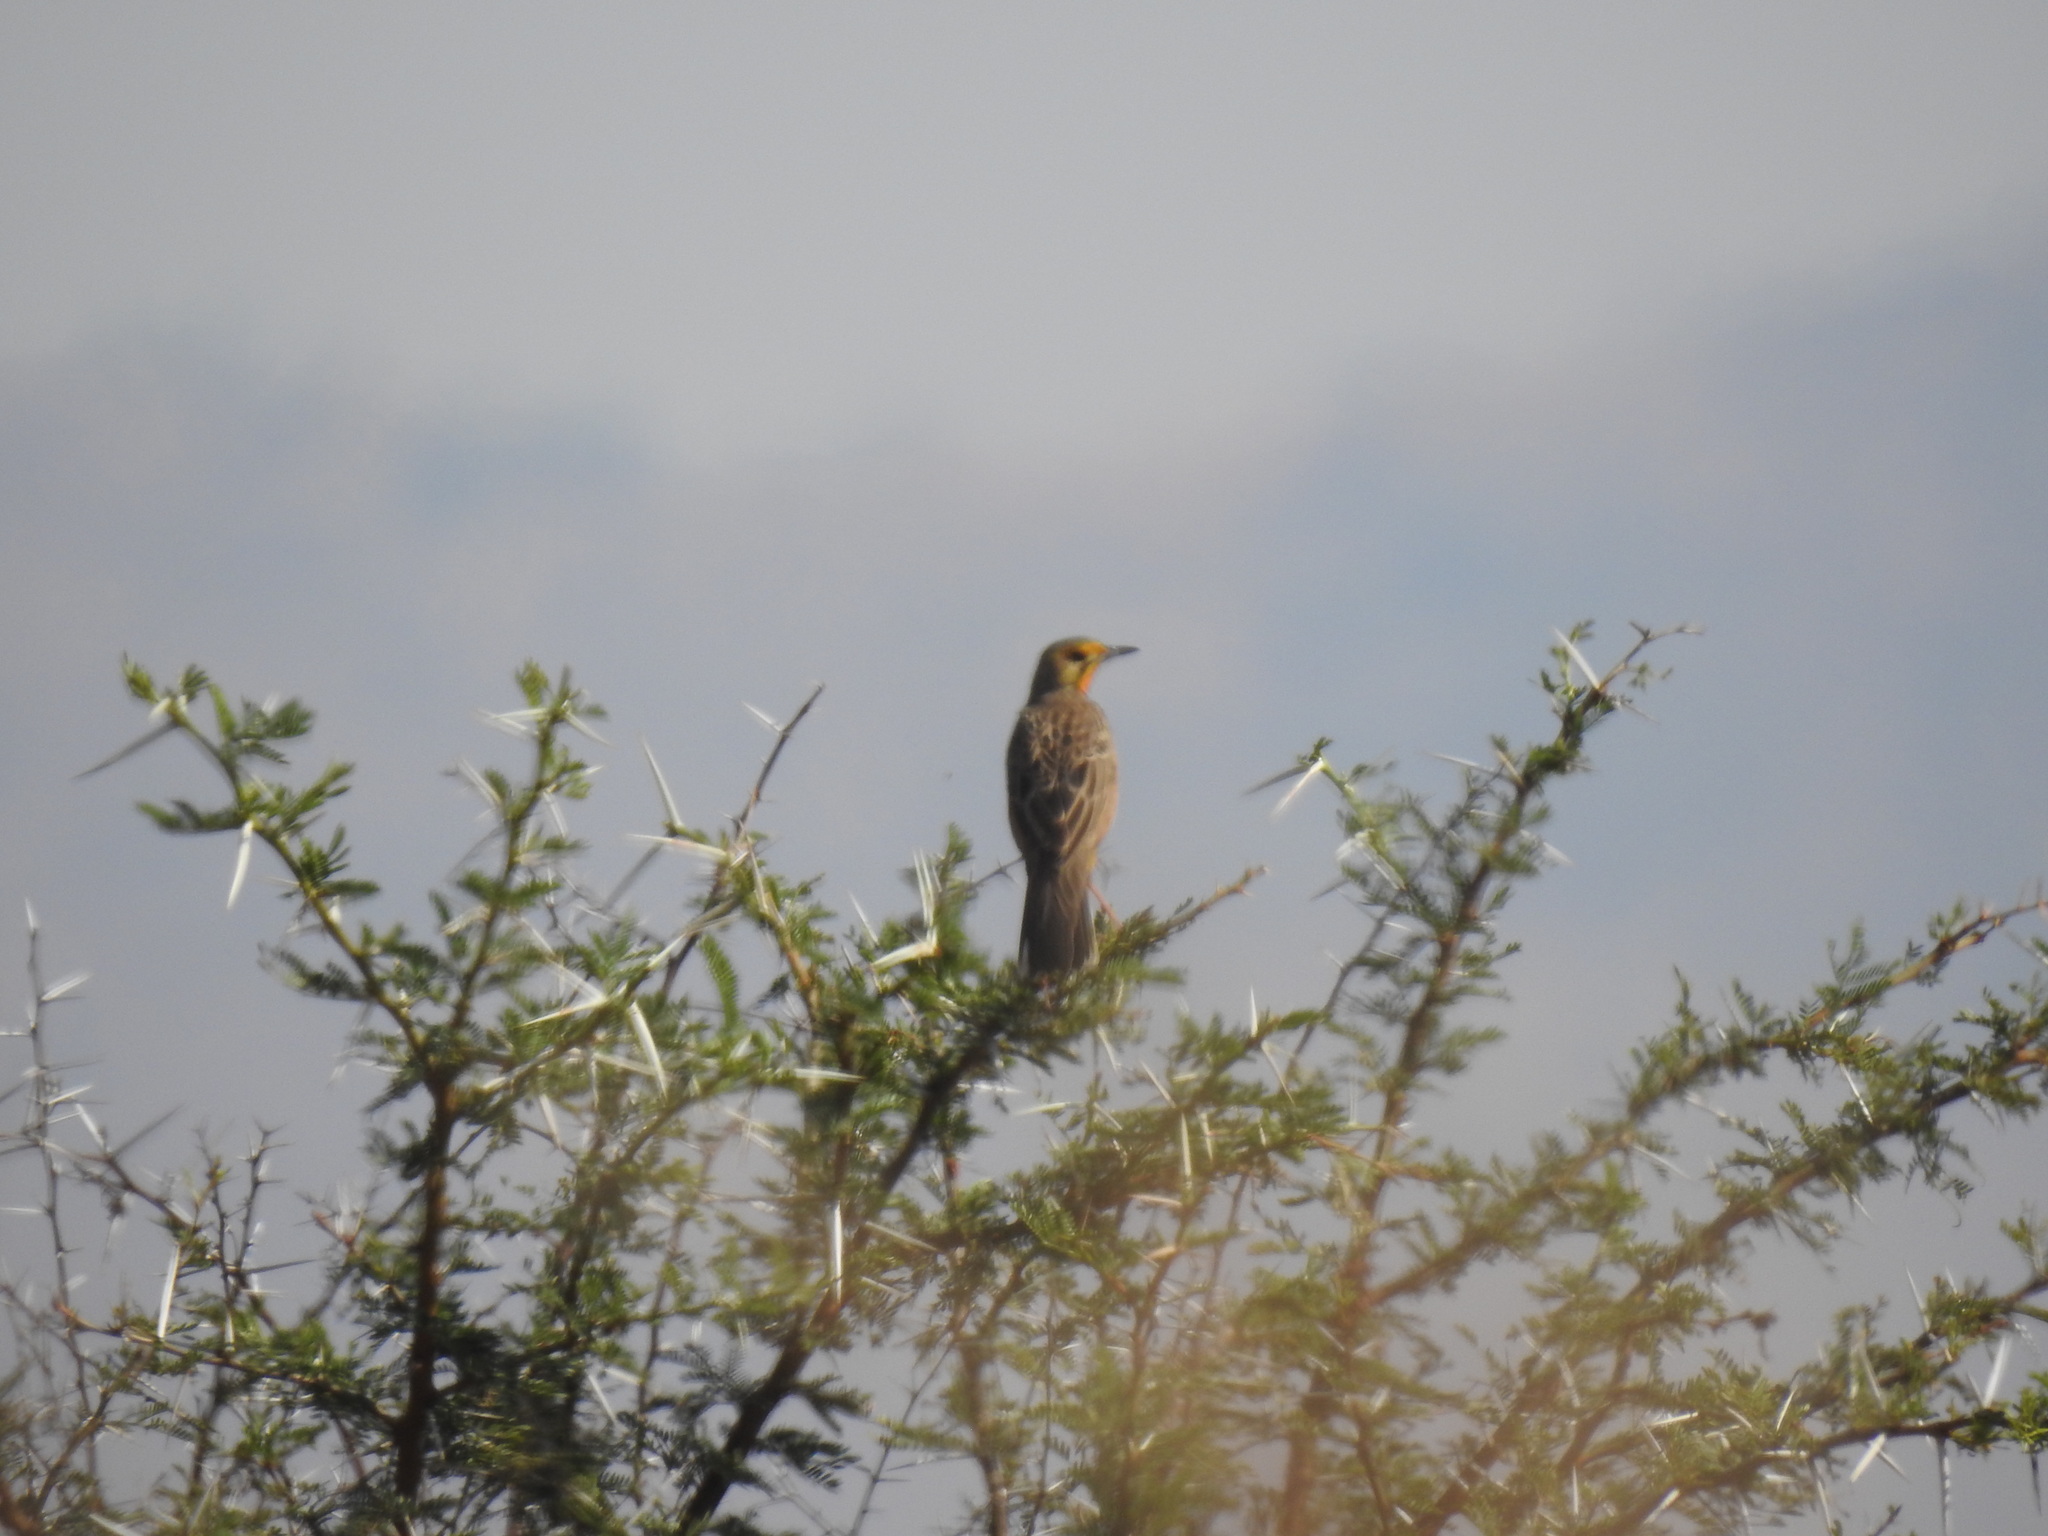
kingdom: Animalia
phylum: Chordata
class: Aves
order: Passeriformes
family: Motacillidae
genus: Macronyx
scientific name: Macronyx capensis
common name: Cape longclaw
